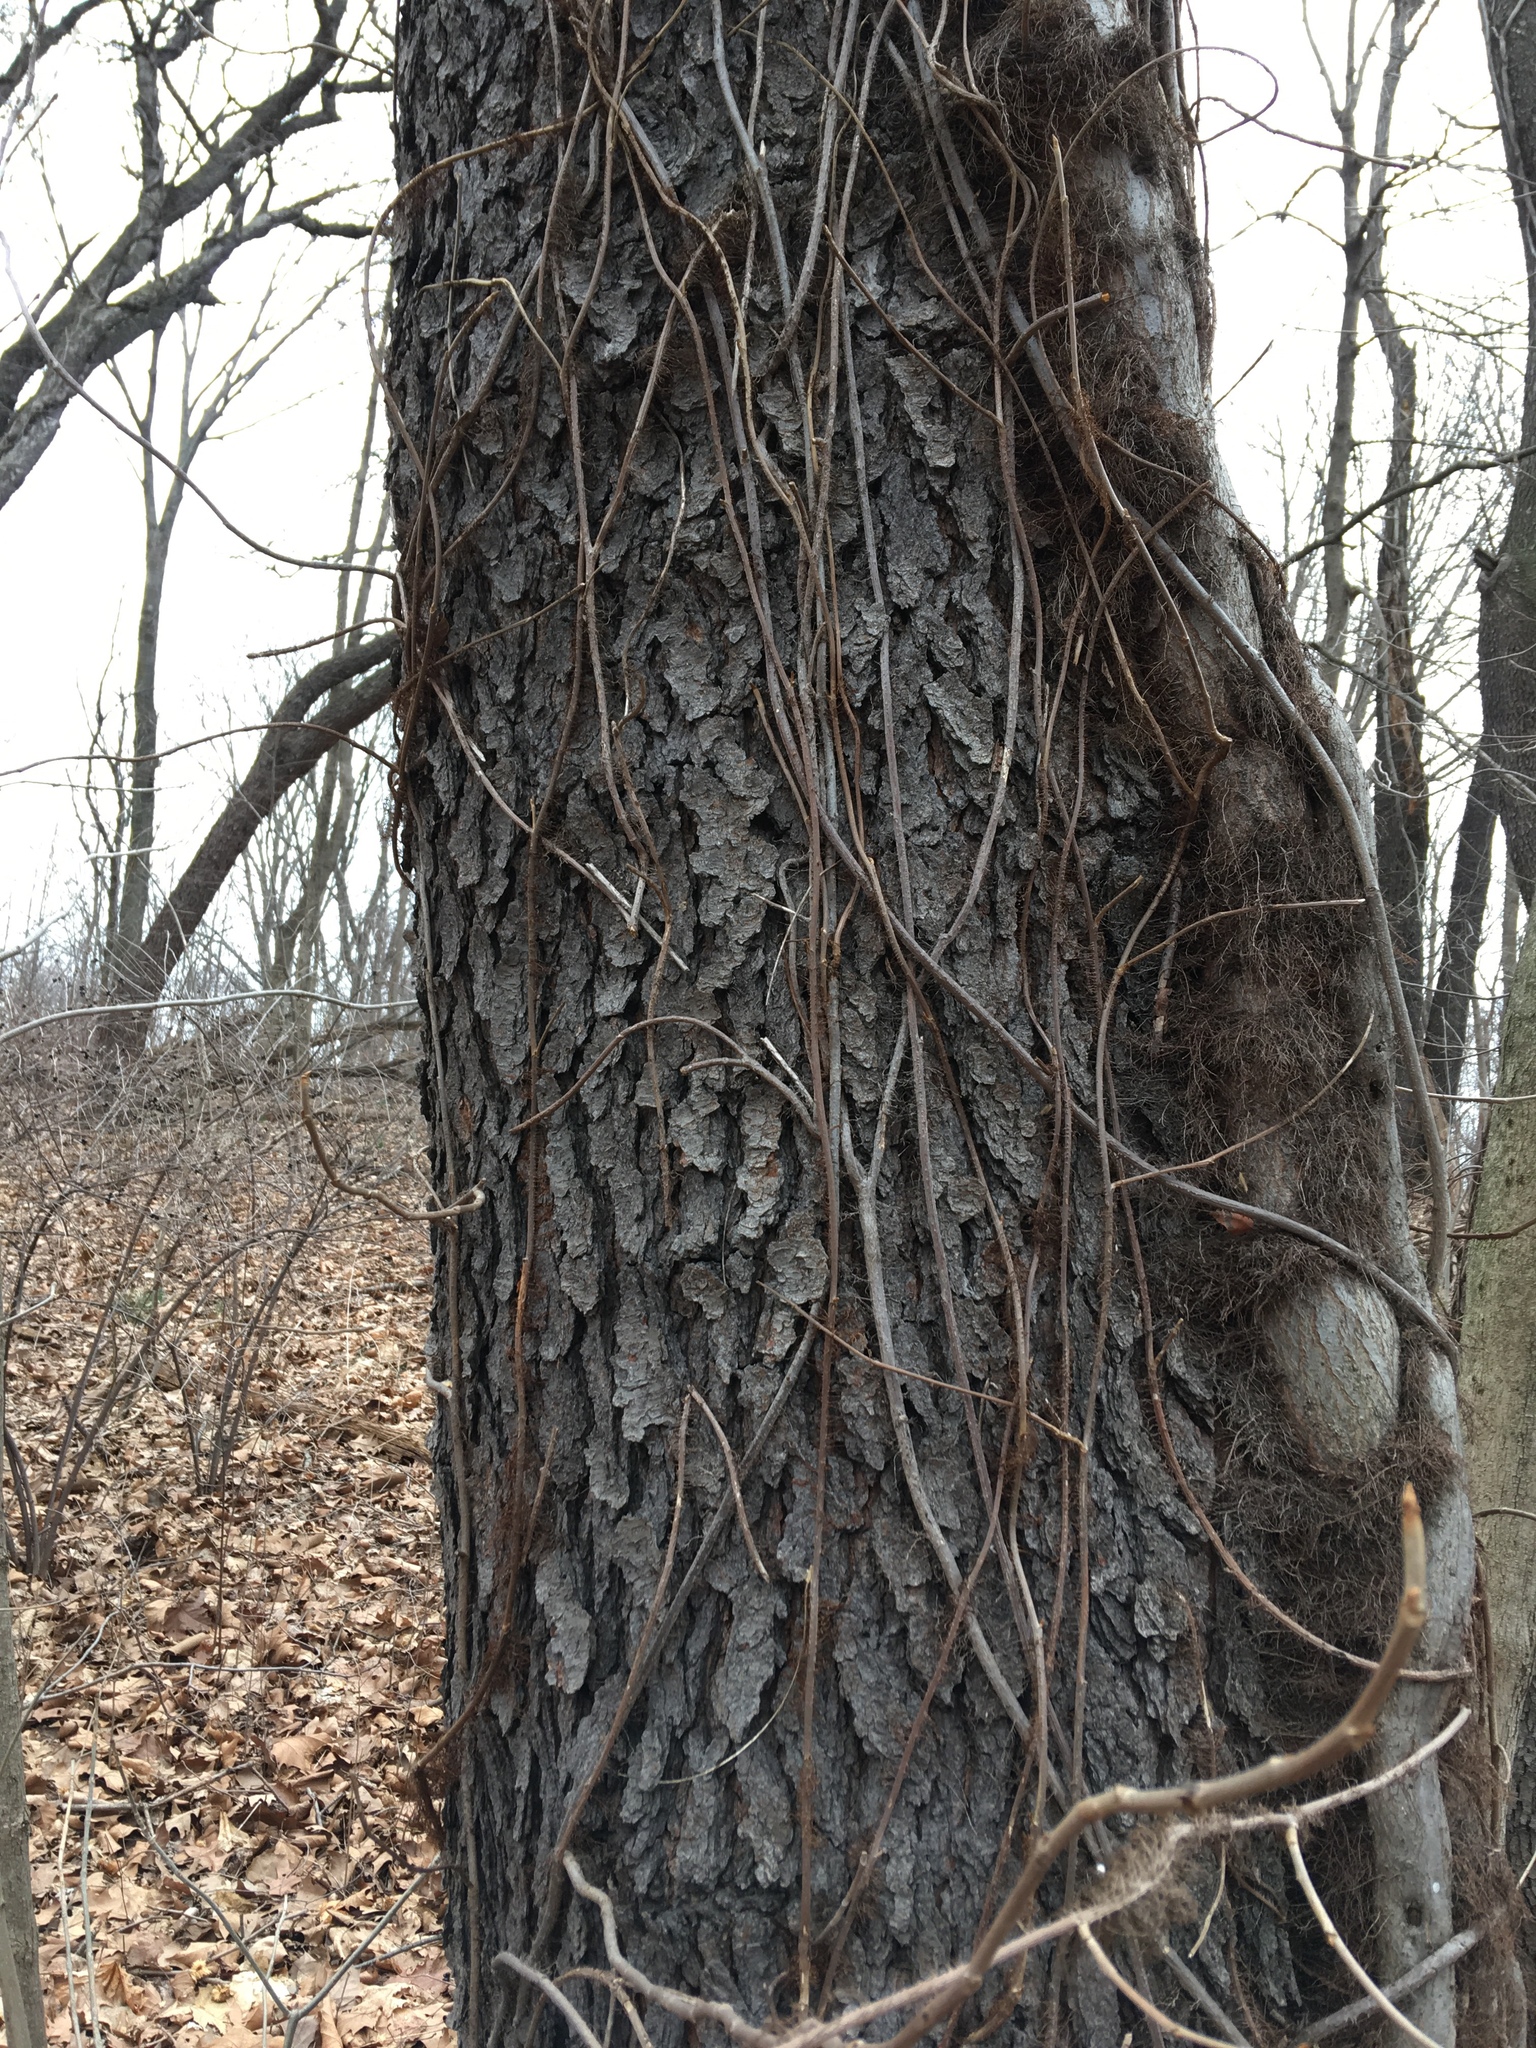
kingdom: Plantae
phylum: Tracheophyta
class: Magnoliopsida
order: Rosales
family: Rosaceae
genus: Prunus
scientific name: Prunus serotina
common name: Black cherry
